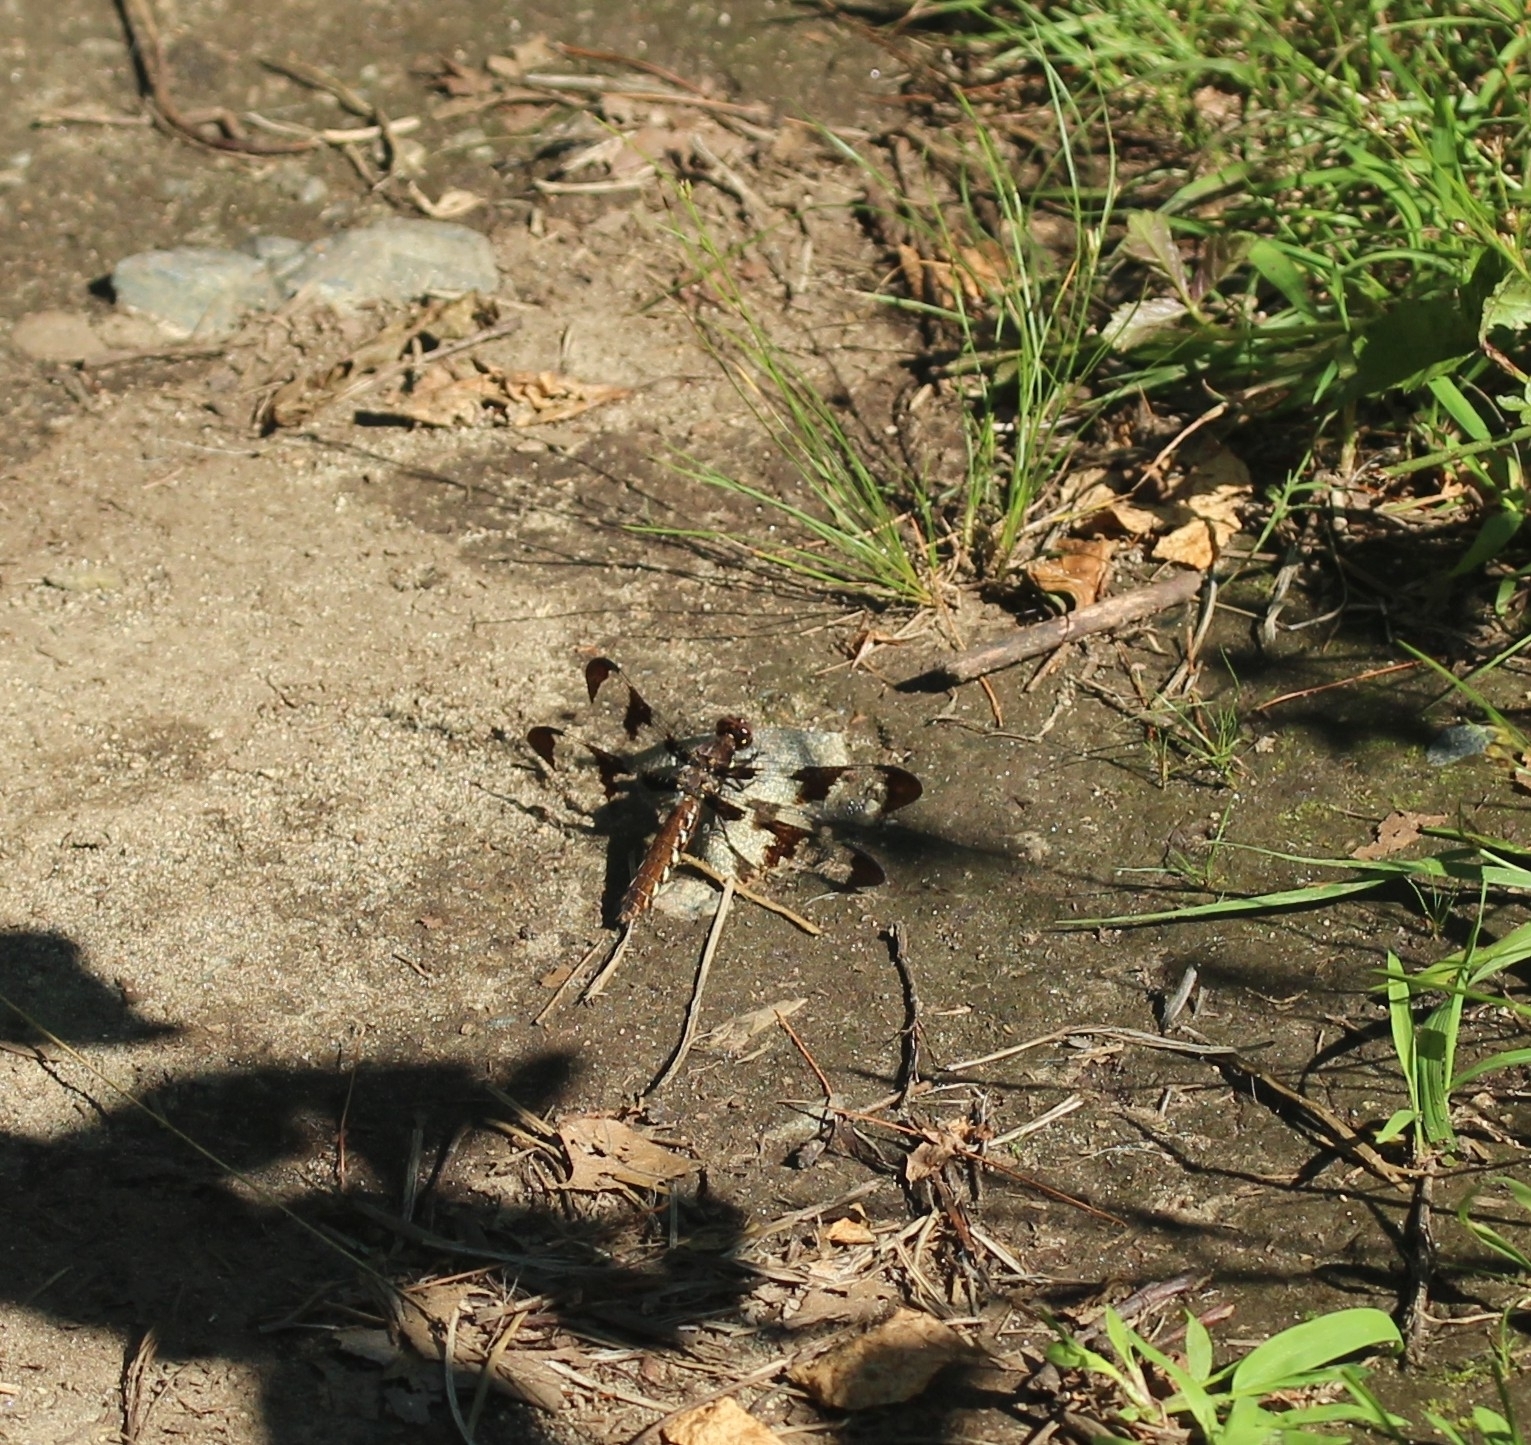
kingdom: Animalia
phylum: Arthropoda
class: Insecta
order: Odonata
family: Libellulidae
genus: Plathemis
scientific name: Plathemis lydia
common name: Common whitetail
